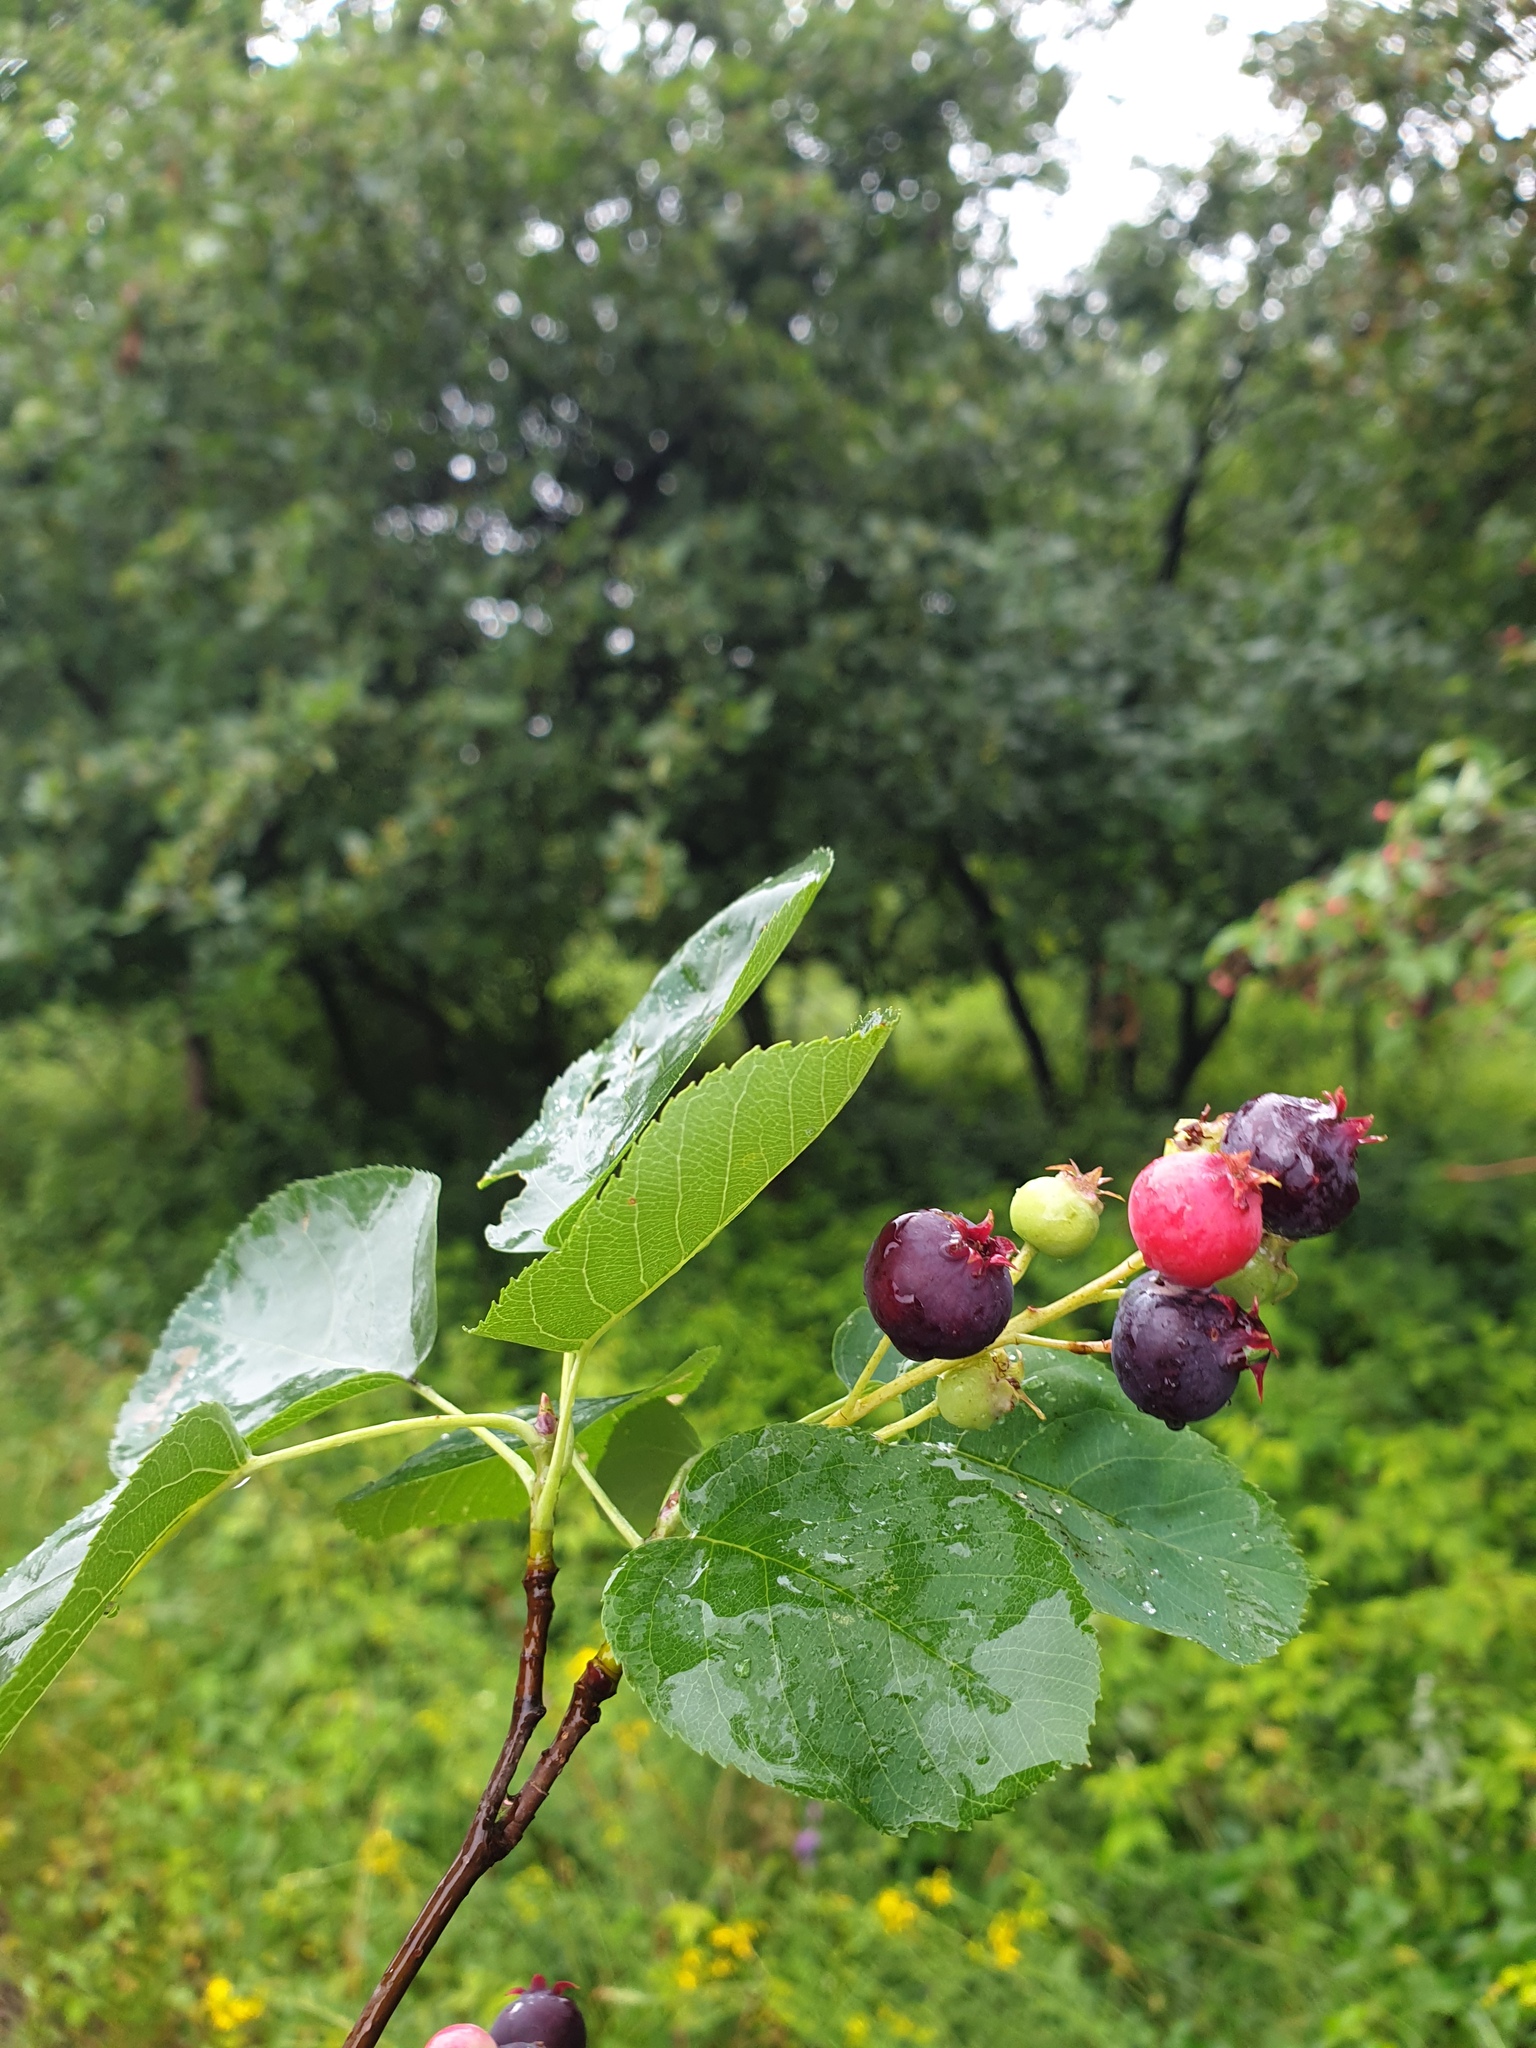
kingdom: Plantae
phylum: Tracheophyta
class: Magnoliopsida
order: Rosales
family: Rosaceae
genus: Amelanchier
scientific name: Amelanchier
